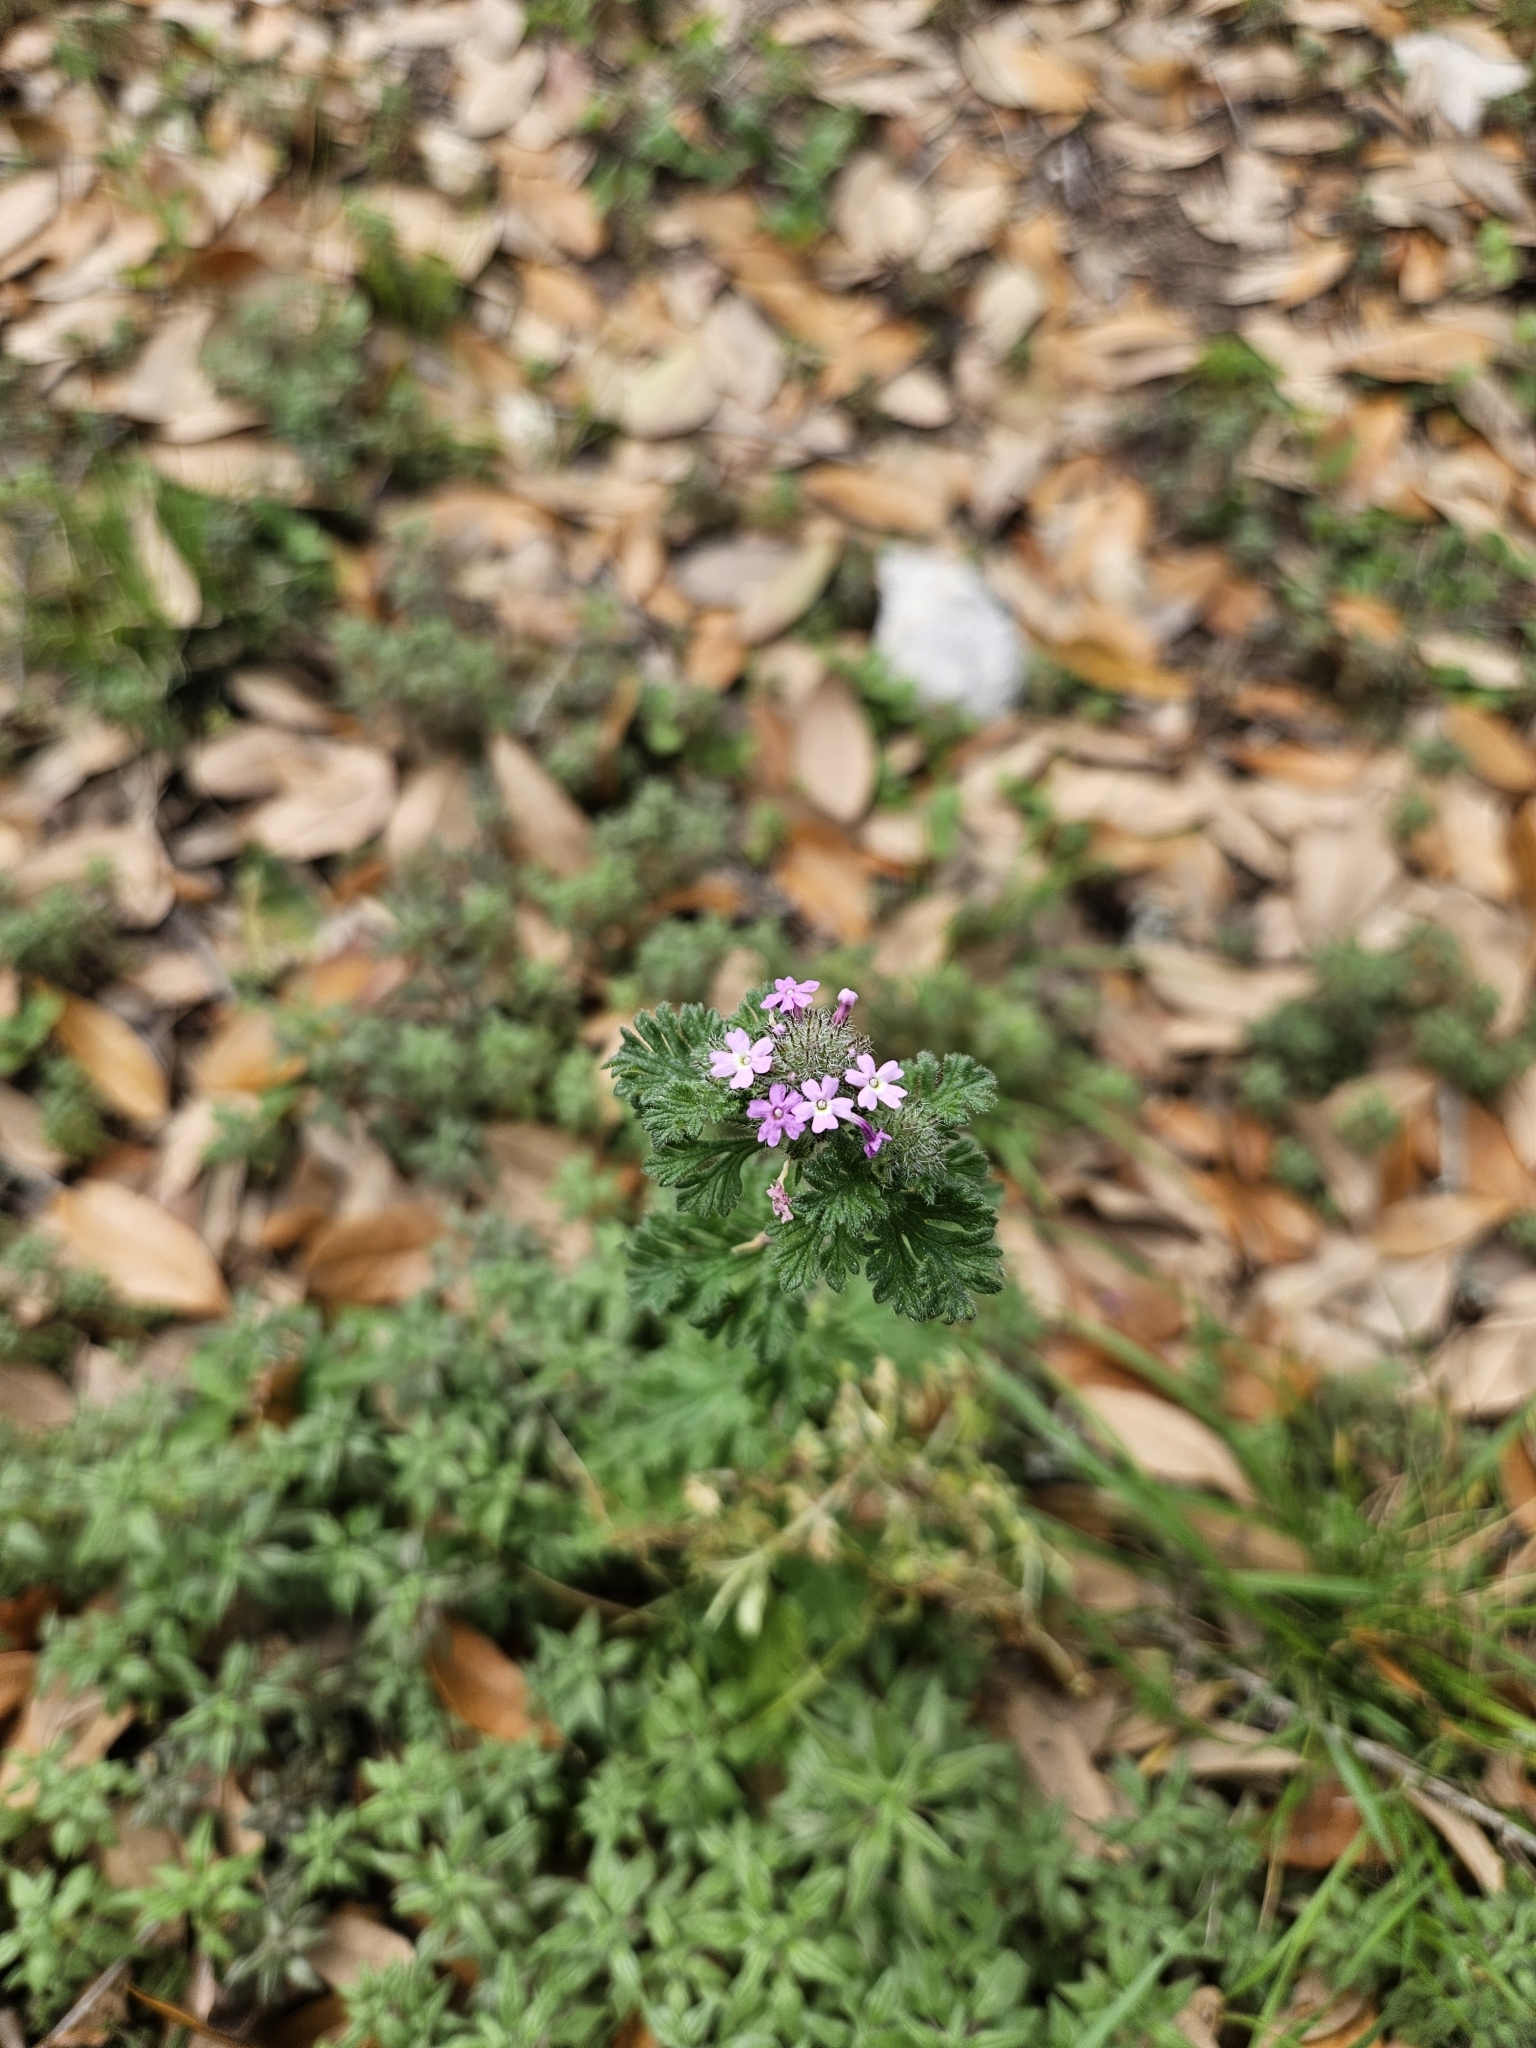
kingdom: Plantae
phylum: Tracheophyta
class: Magnoliopsida
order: Lamiales
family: Verbenaceae
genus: Verbena
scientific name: Verbena pumila
